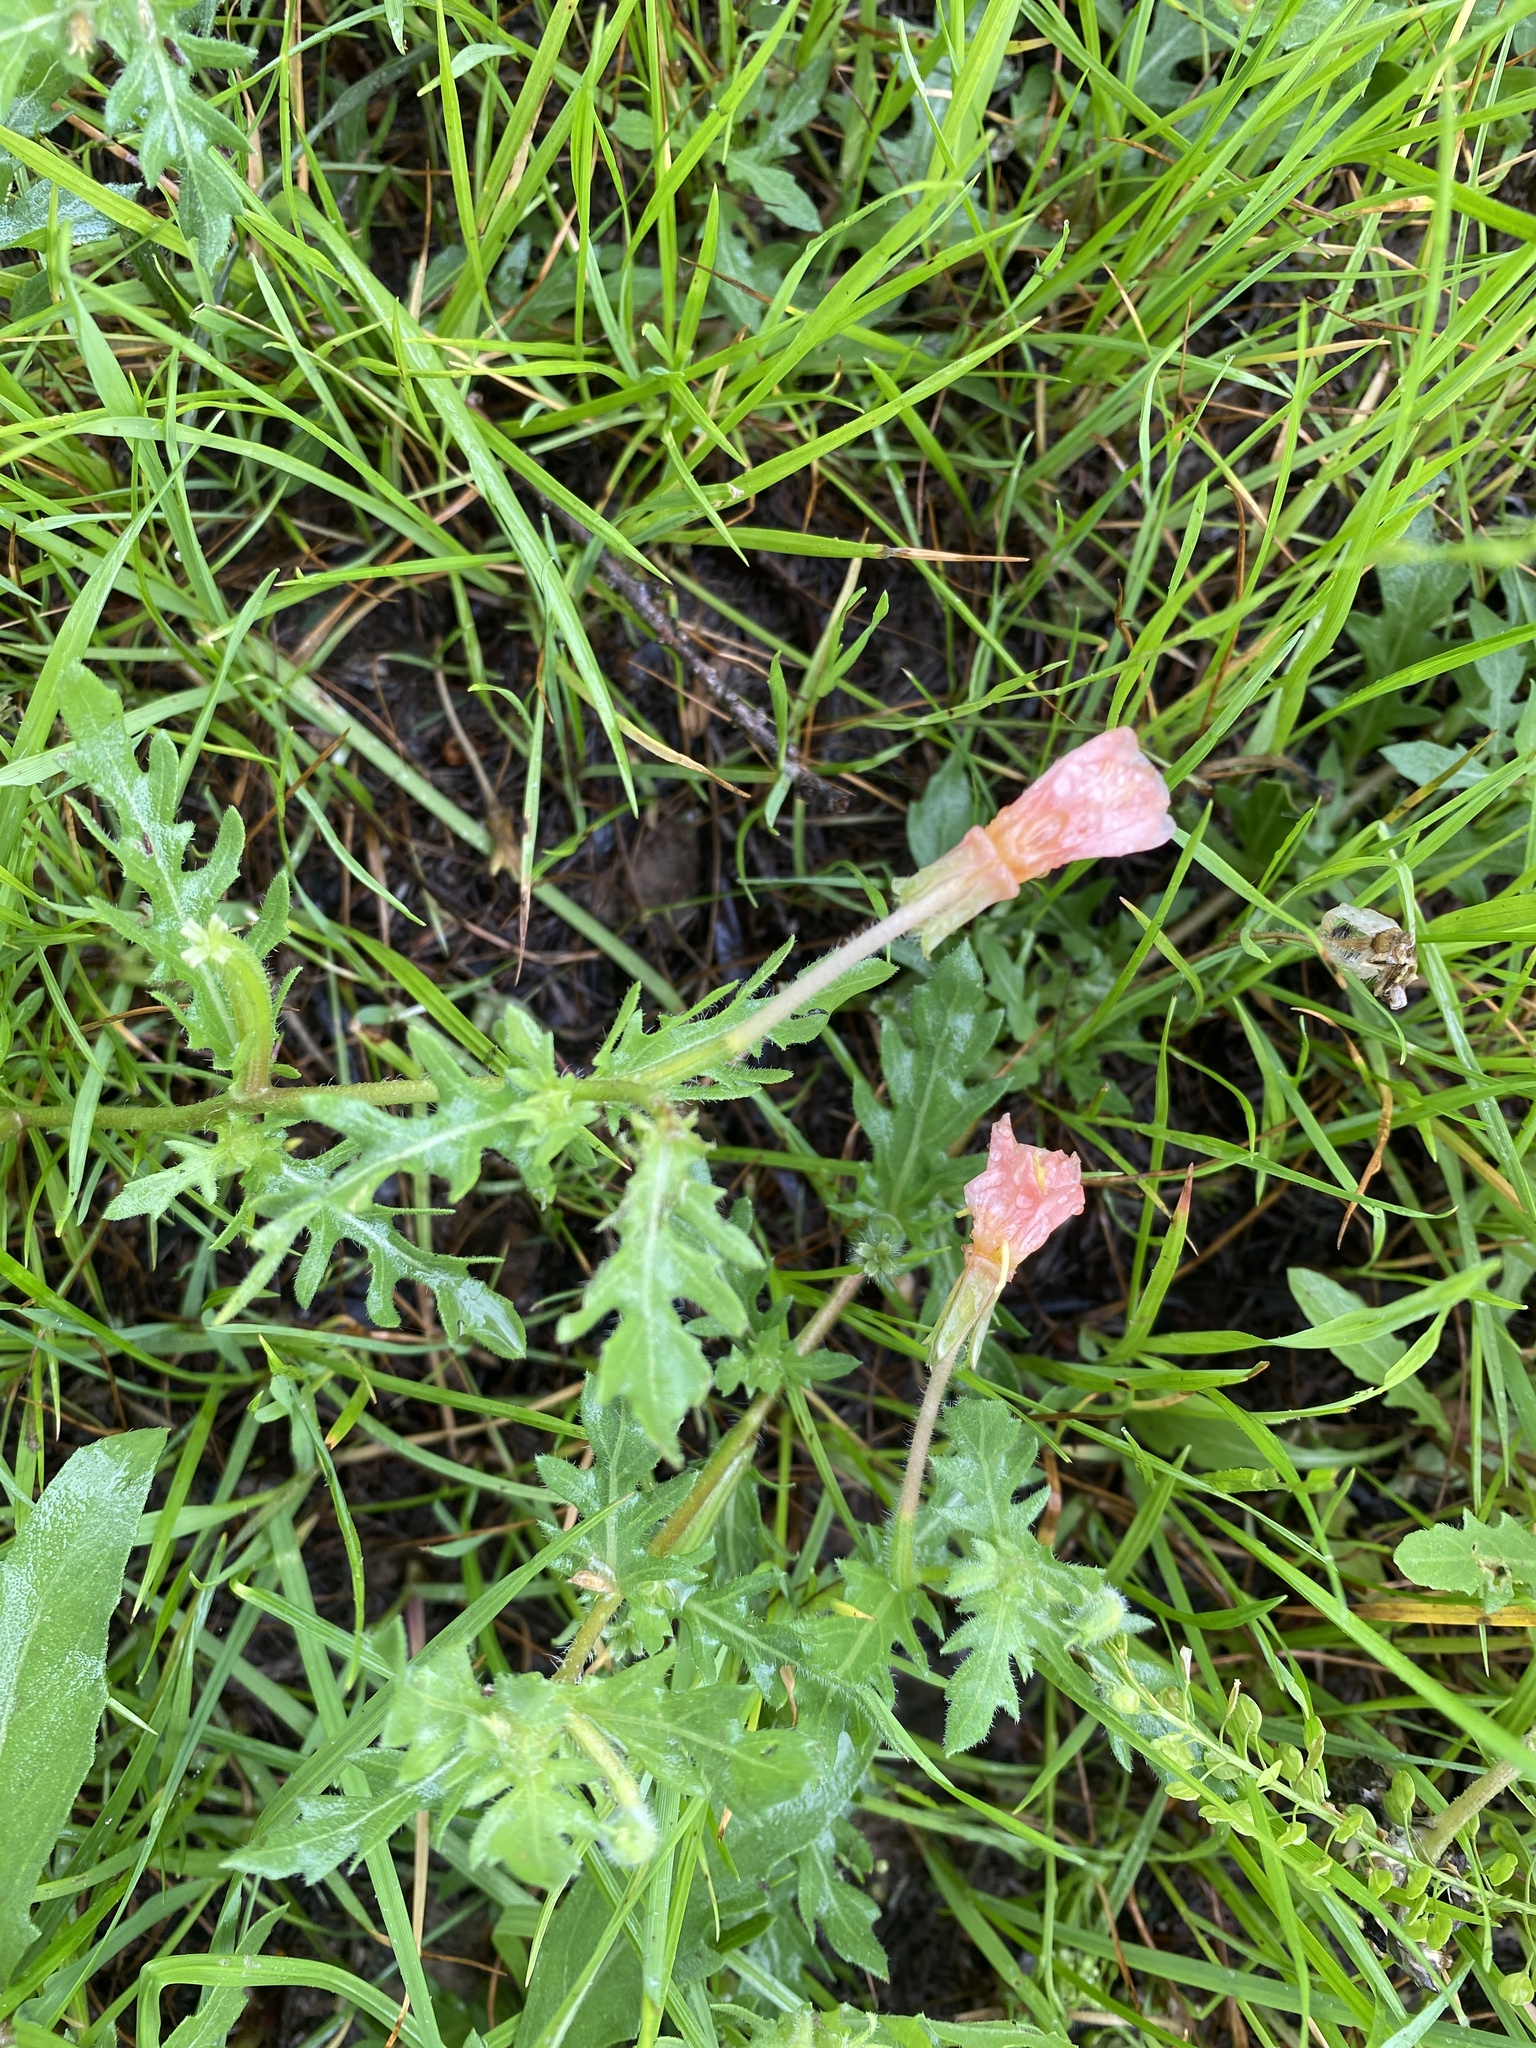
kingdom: Plantae
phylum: Tracheophyta
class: Magnoliopsida
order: Myrtales
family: Onagraceae
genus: Oenothera
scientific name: Oenothera laciniata
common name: Cut-leaved evening-primrose
